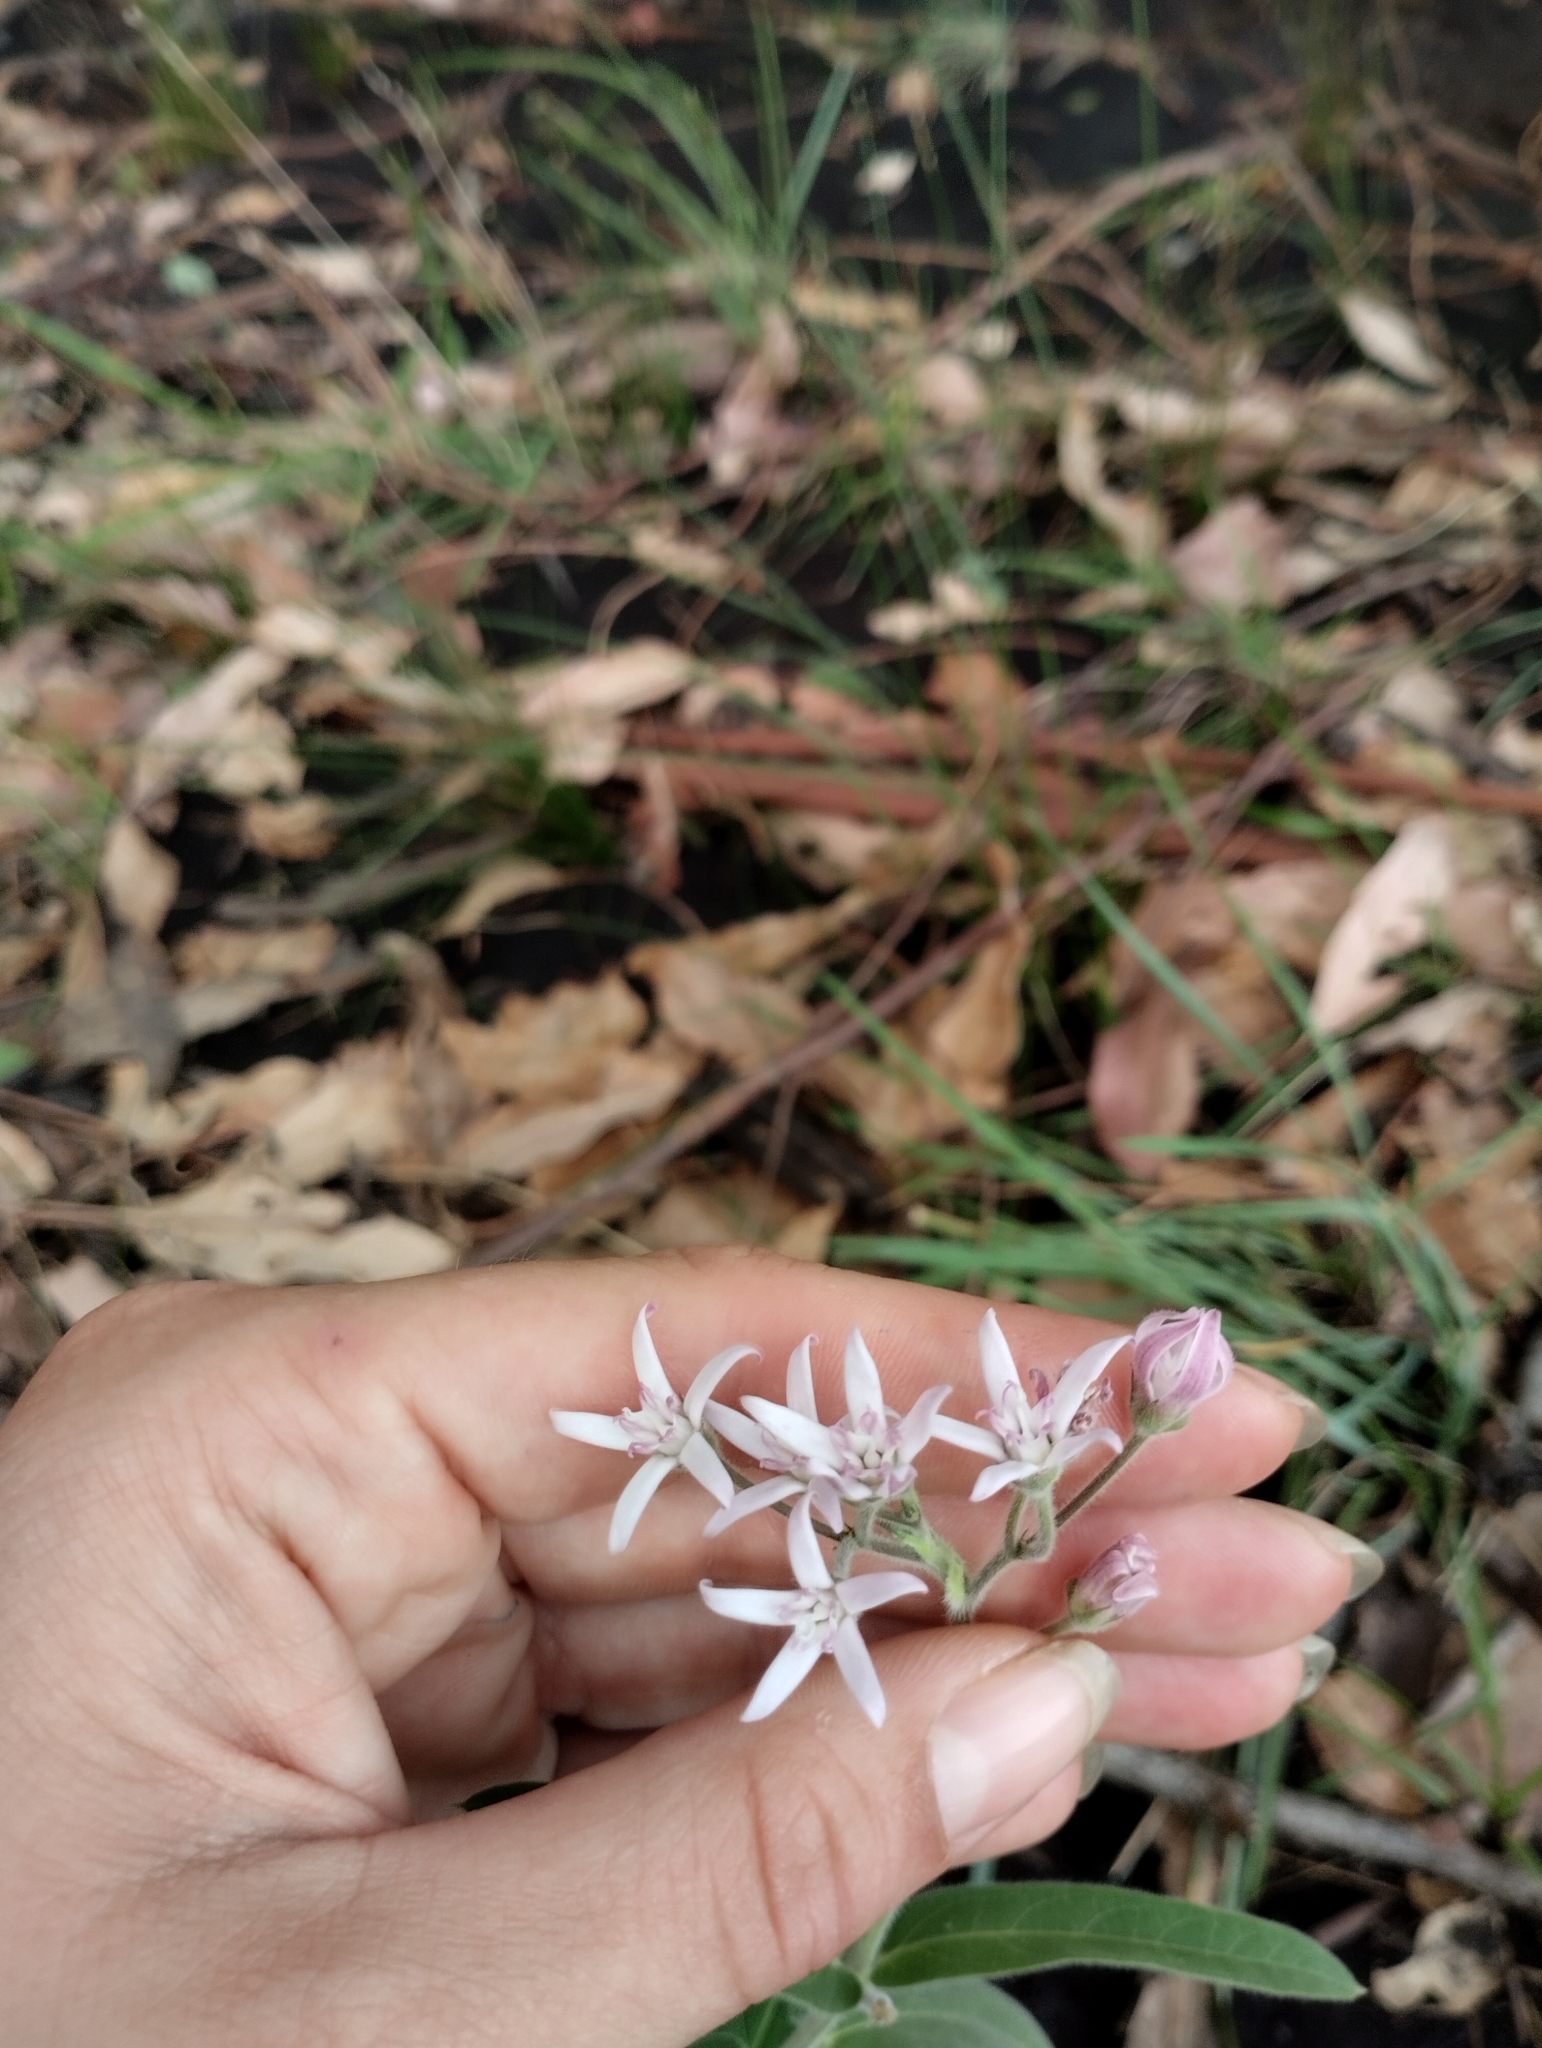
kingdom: Plantae
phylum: Tracheophyta
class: Magnoliopsida
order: Gentianales
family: Apocynaceae
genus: Oxypetalum
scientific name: Oxypetalum solanoides
